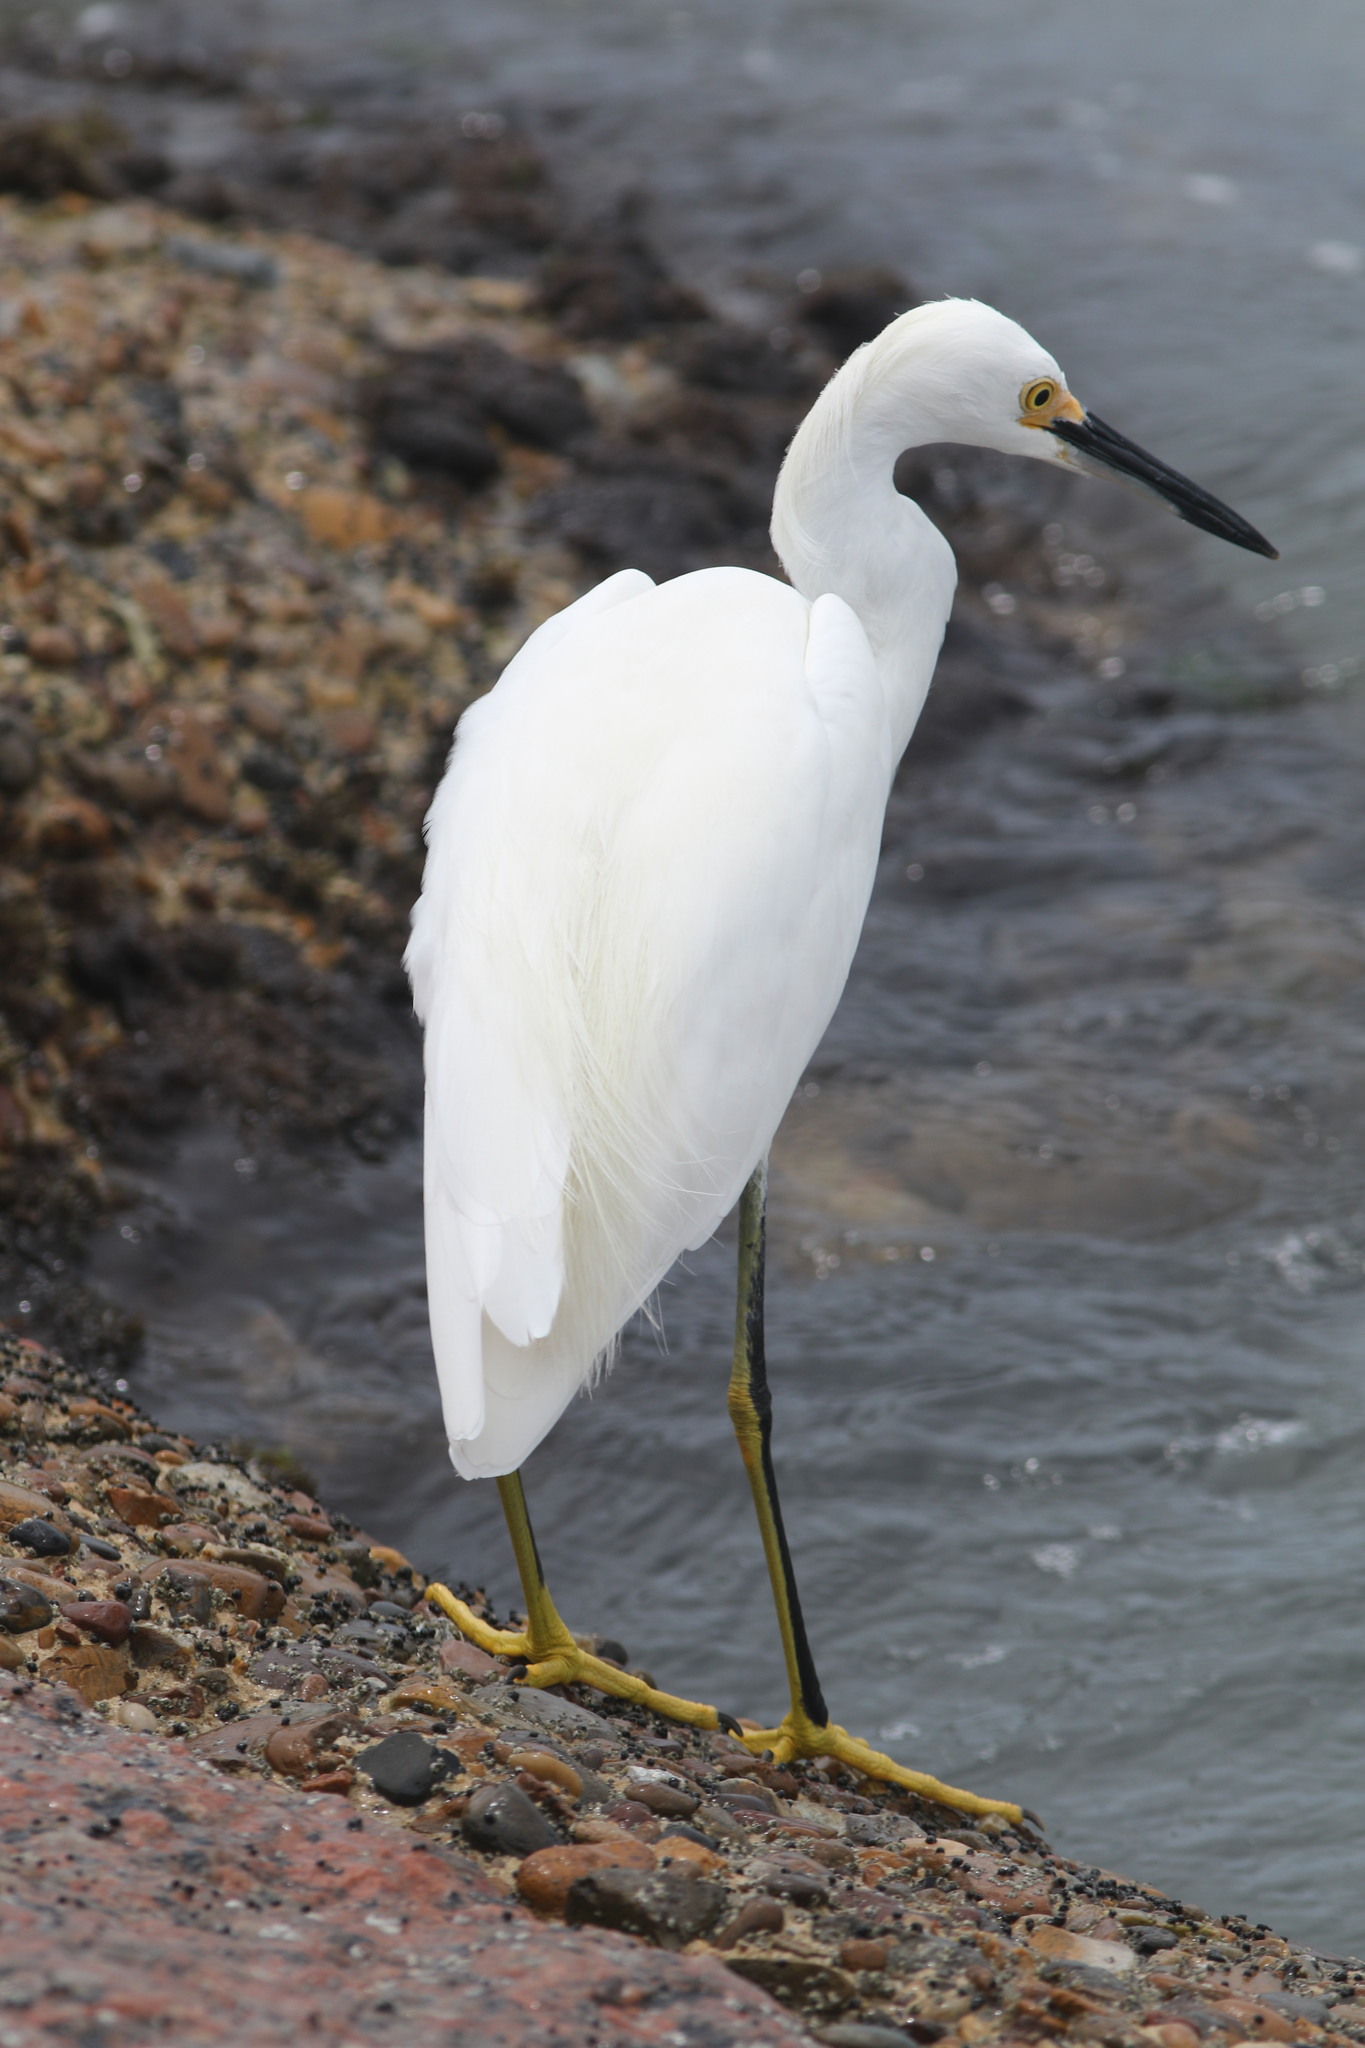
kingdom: Animalia
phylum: Chordata
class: Aves
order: Pelecaniformes
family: Ardeidae
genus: Egretta
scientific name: Egretta thula
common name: Snowy egret
